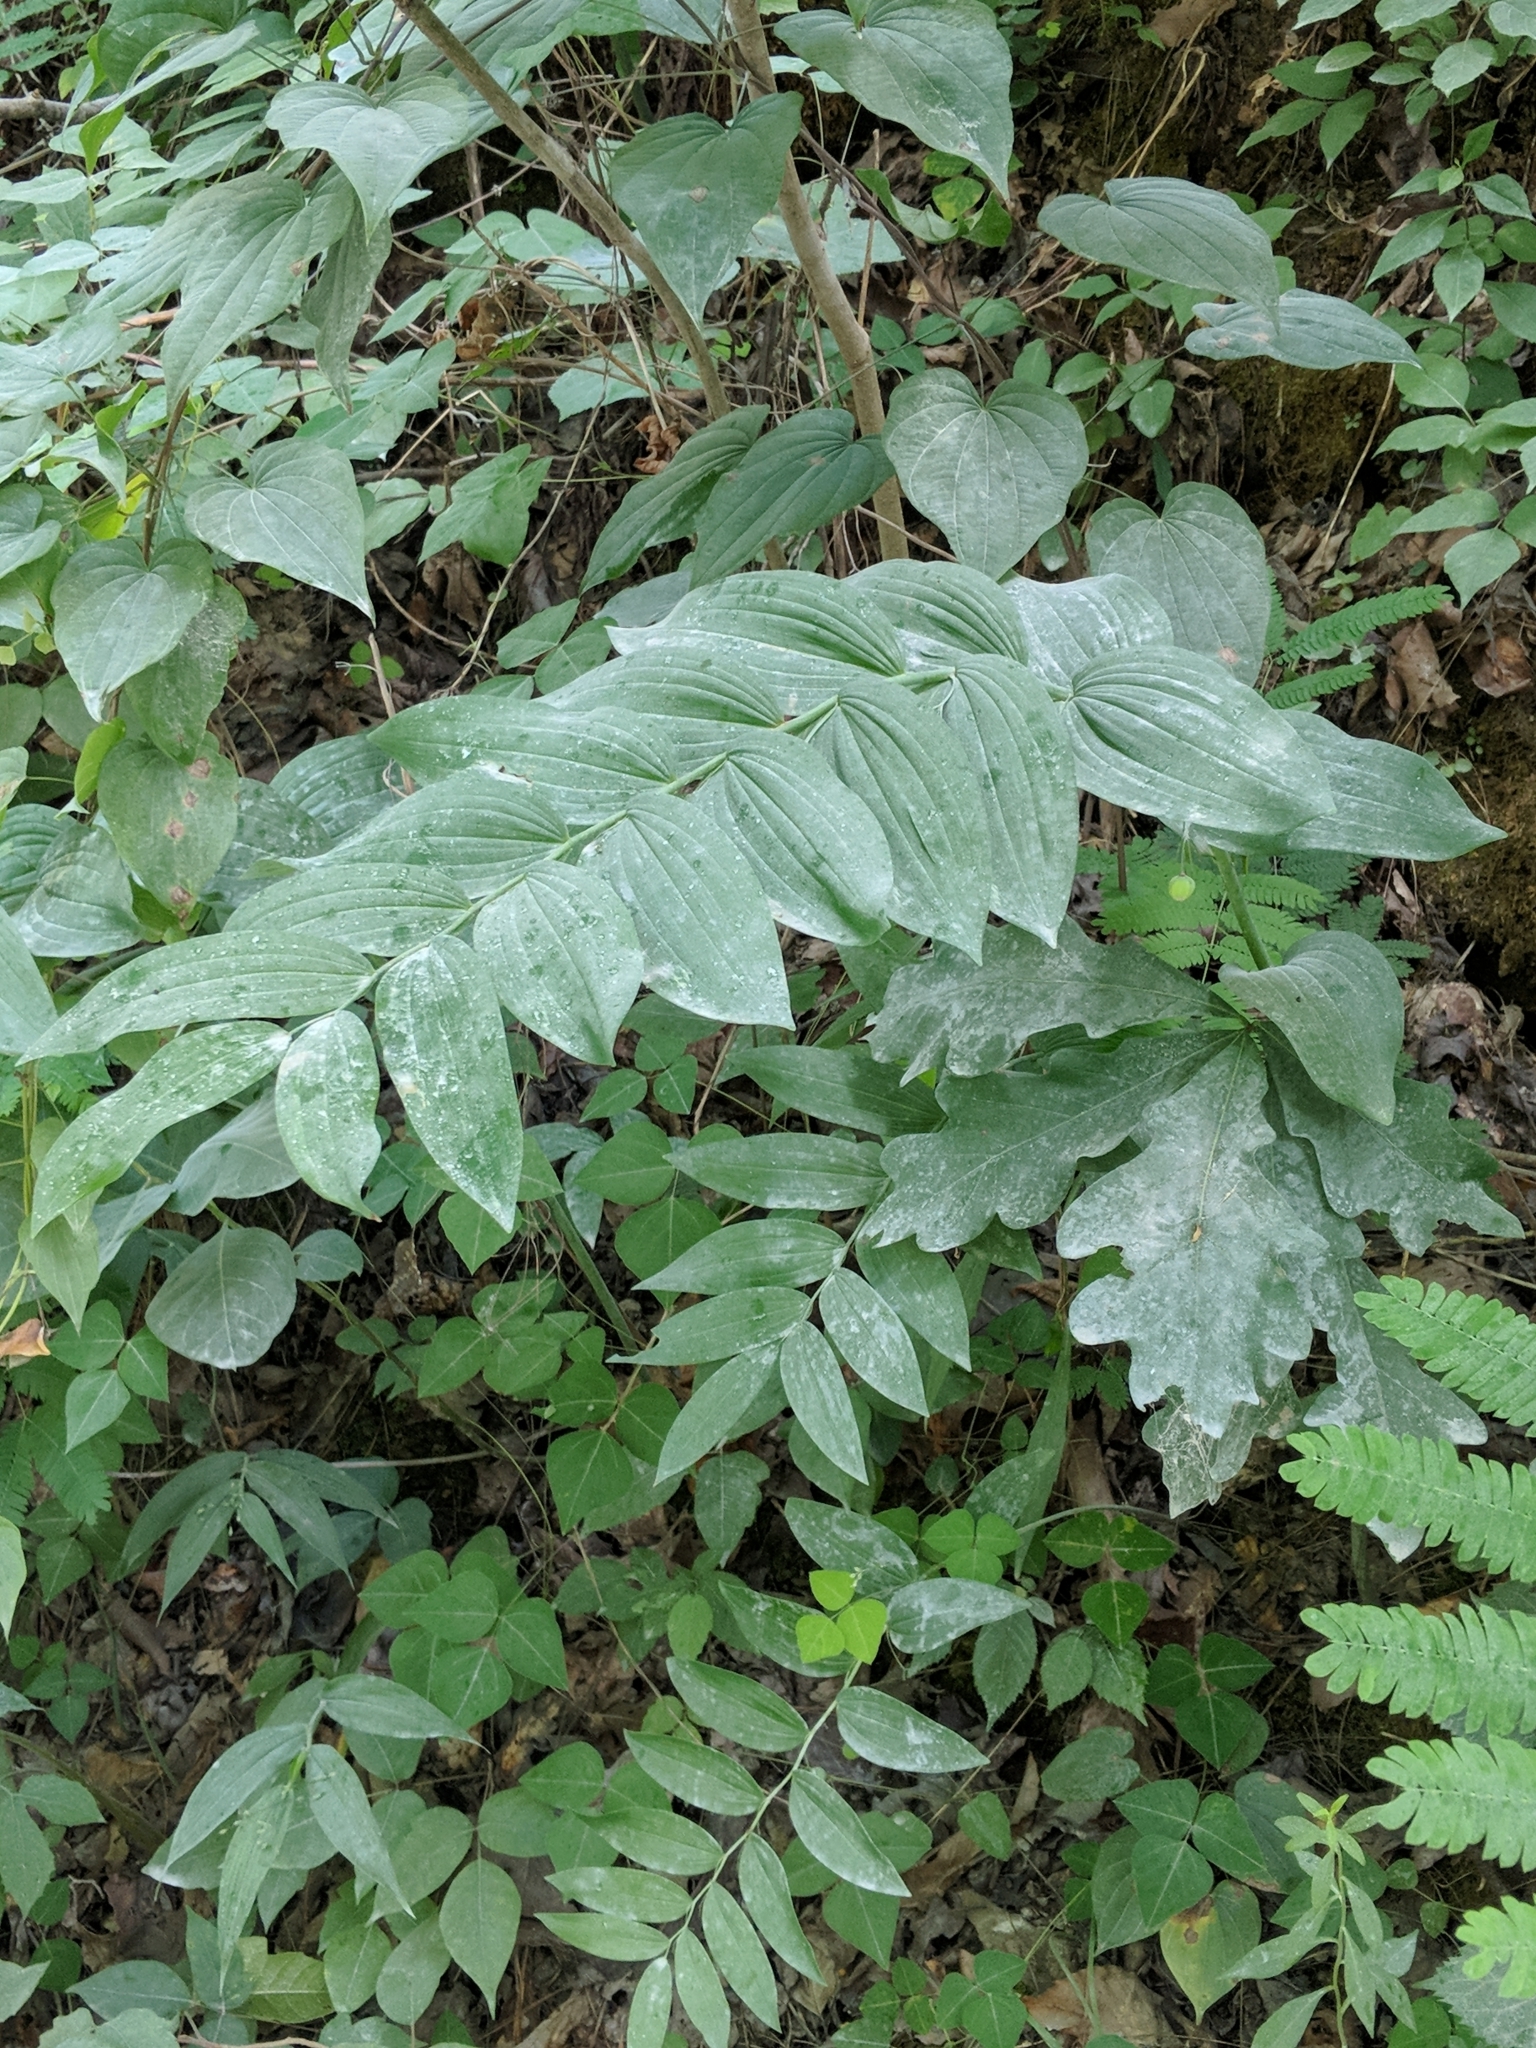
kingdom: Plantae
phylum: Tracheophyta
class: Liliopsida
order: Asparagales
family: Asparagaceae
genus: Polygonatum
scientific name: Polygonatum biflorum
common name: American solomon's-seal
